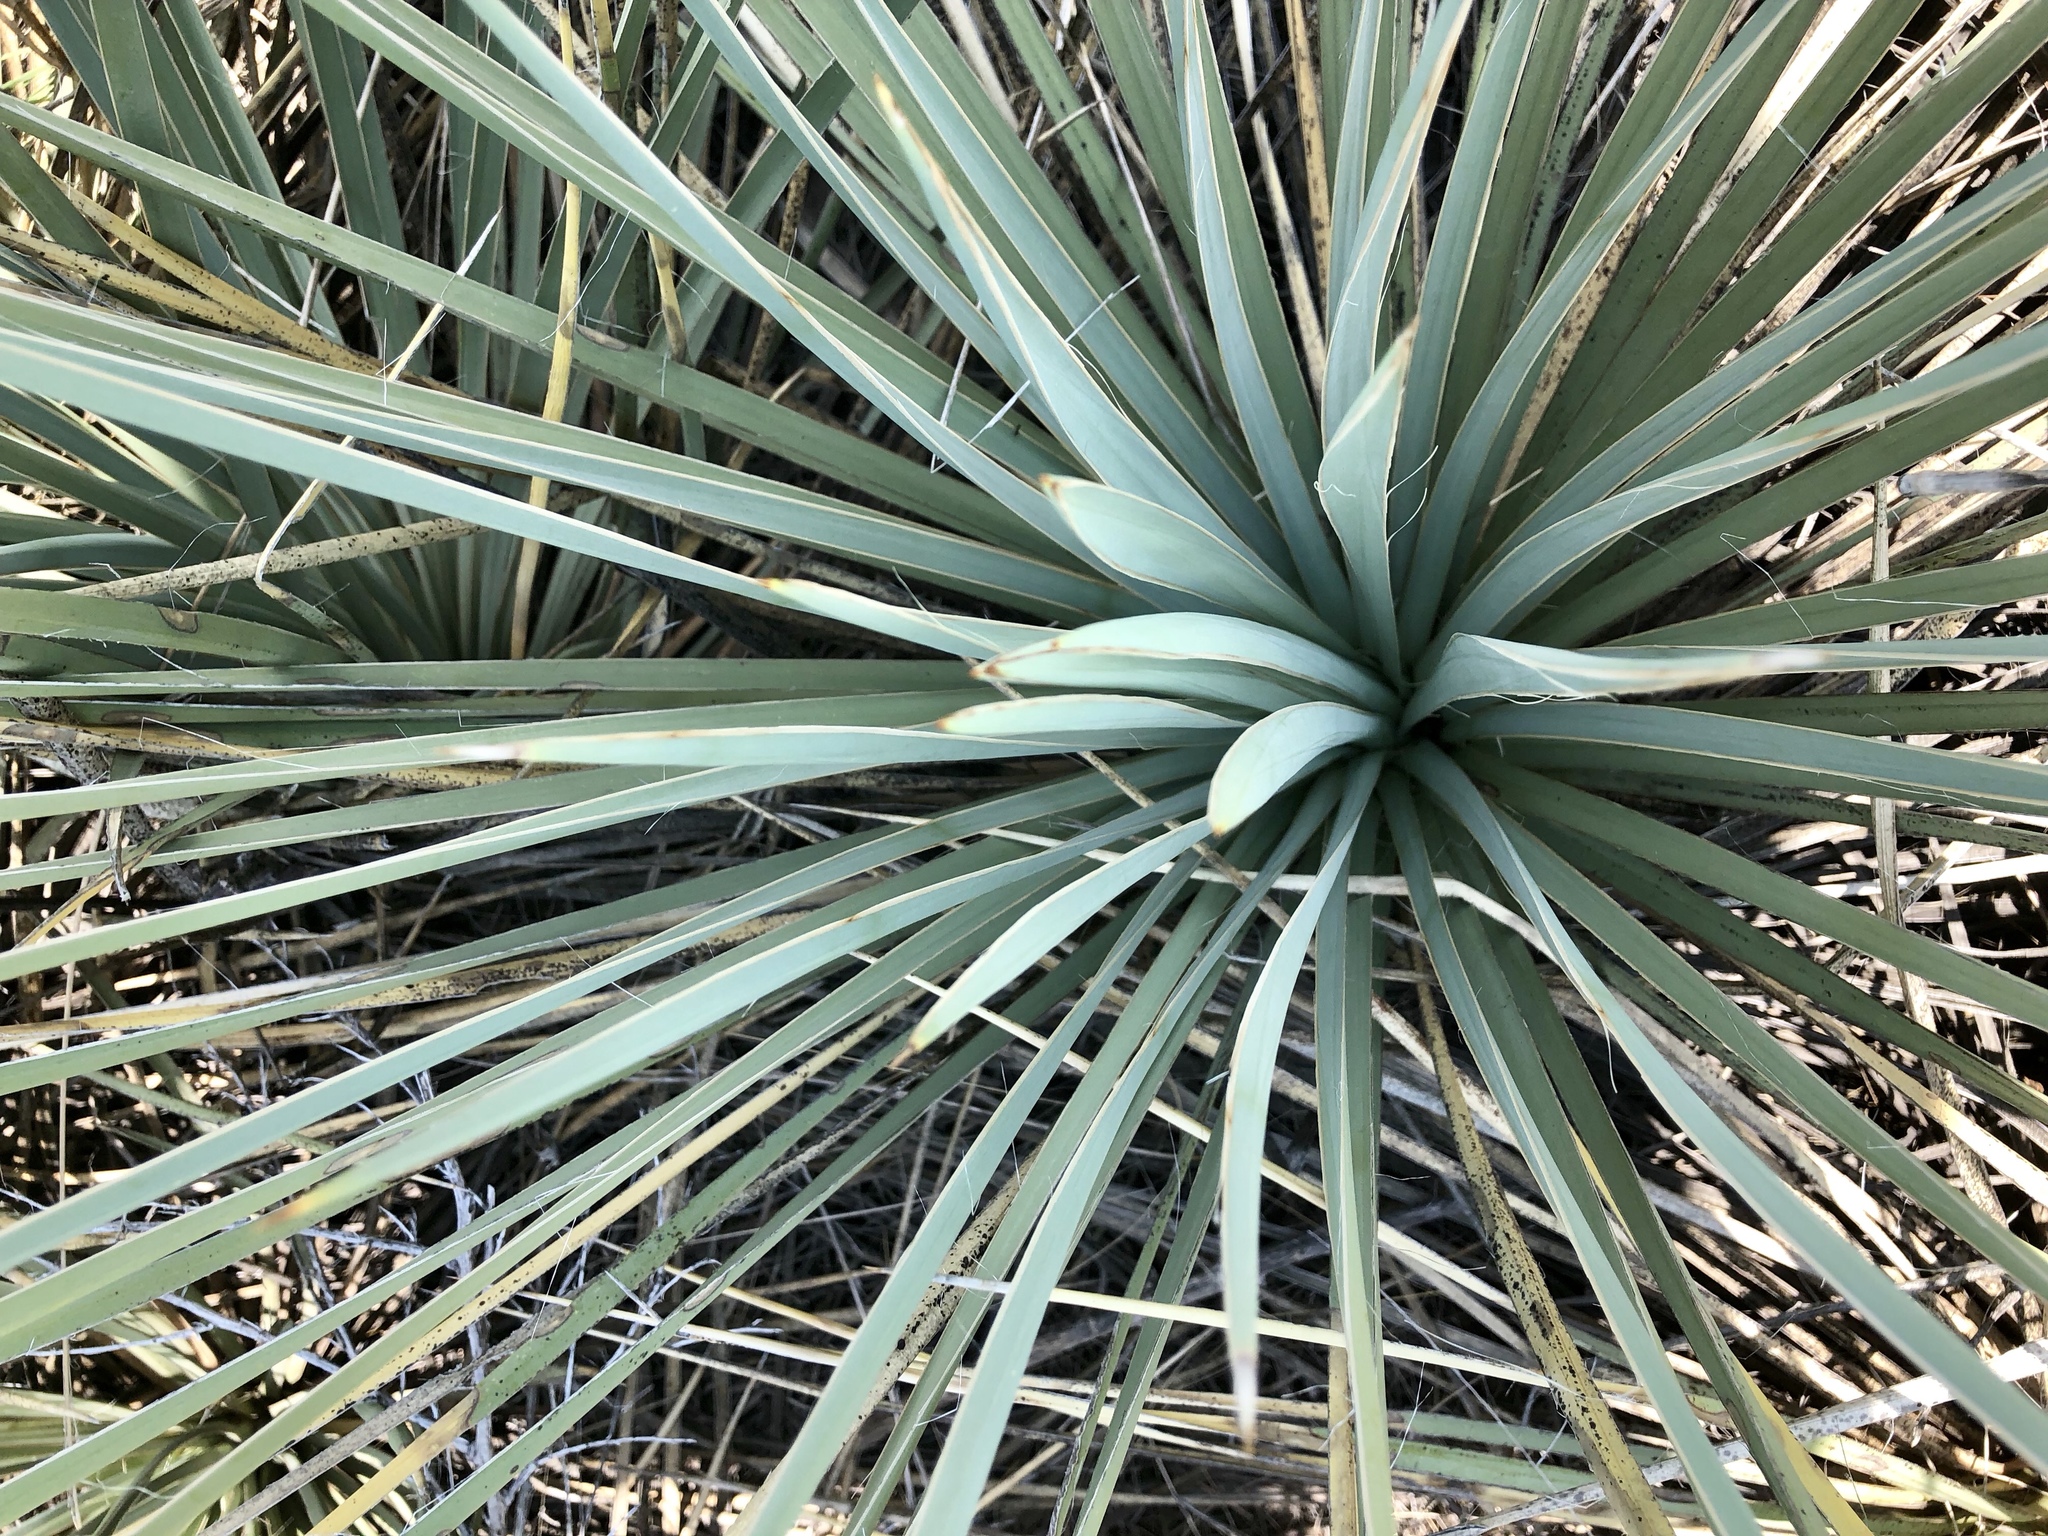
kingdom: Plantae
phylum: Tracheophyta
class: Liliopsida
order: Asparagales
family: Asparagaceae
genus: Yucca
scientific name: Yucca glauca
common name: Great plains yucca
